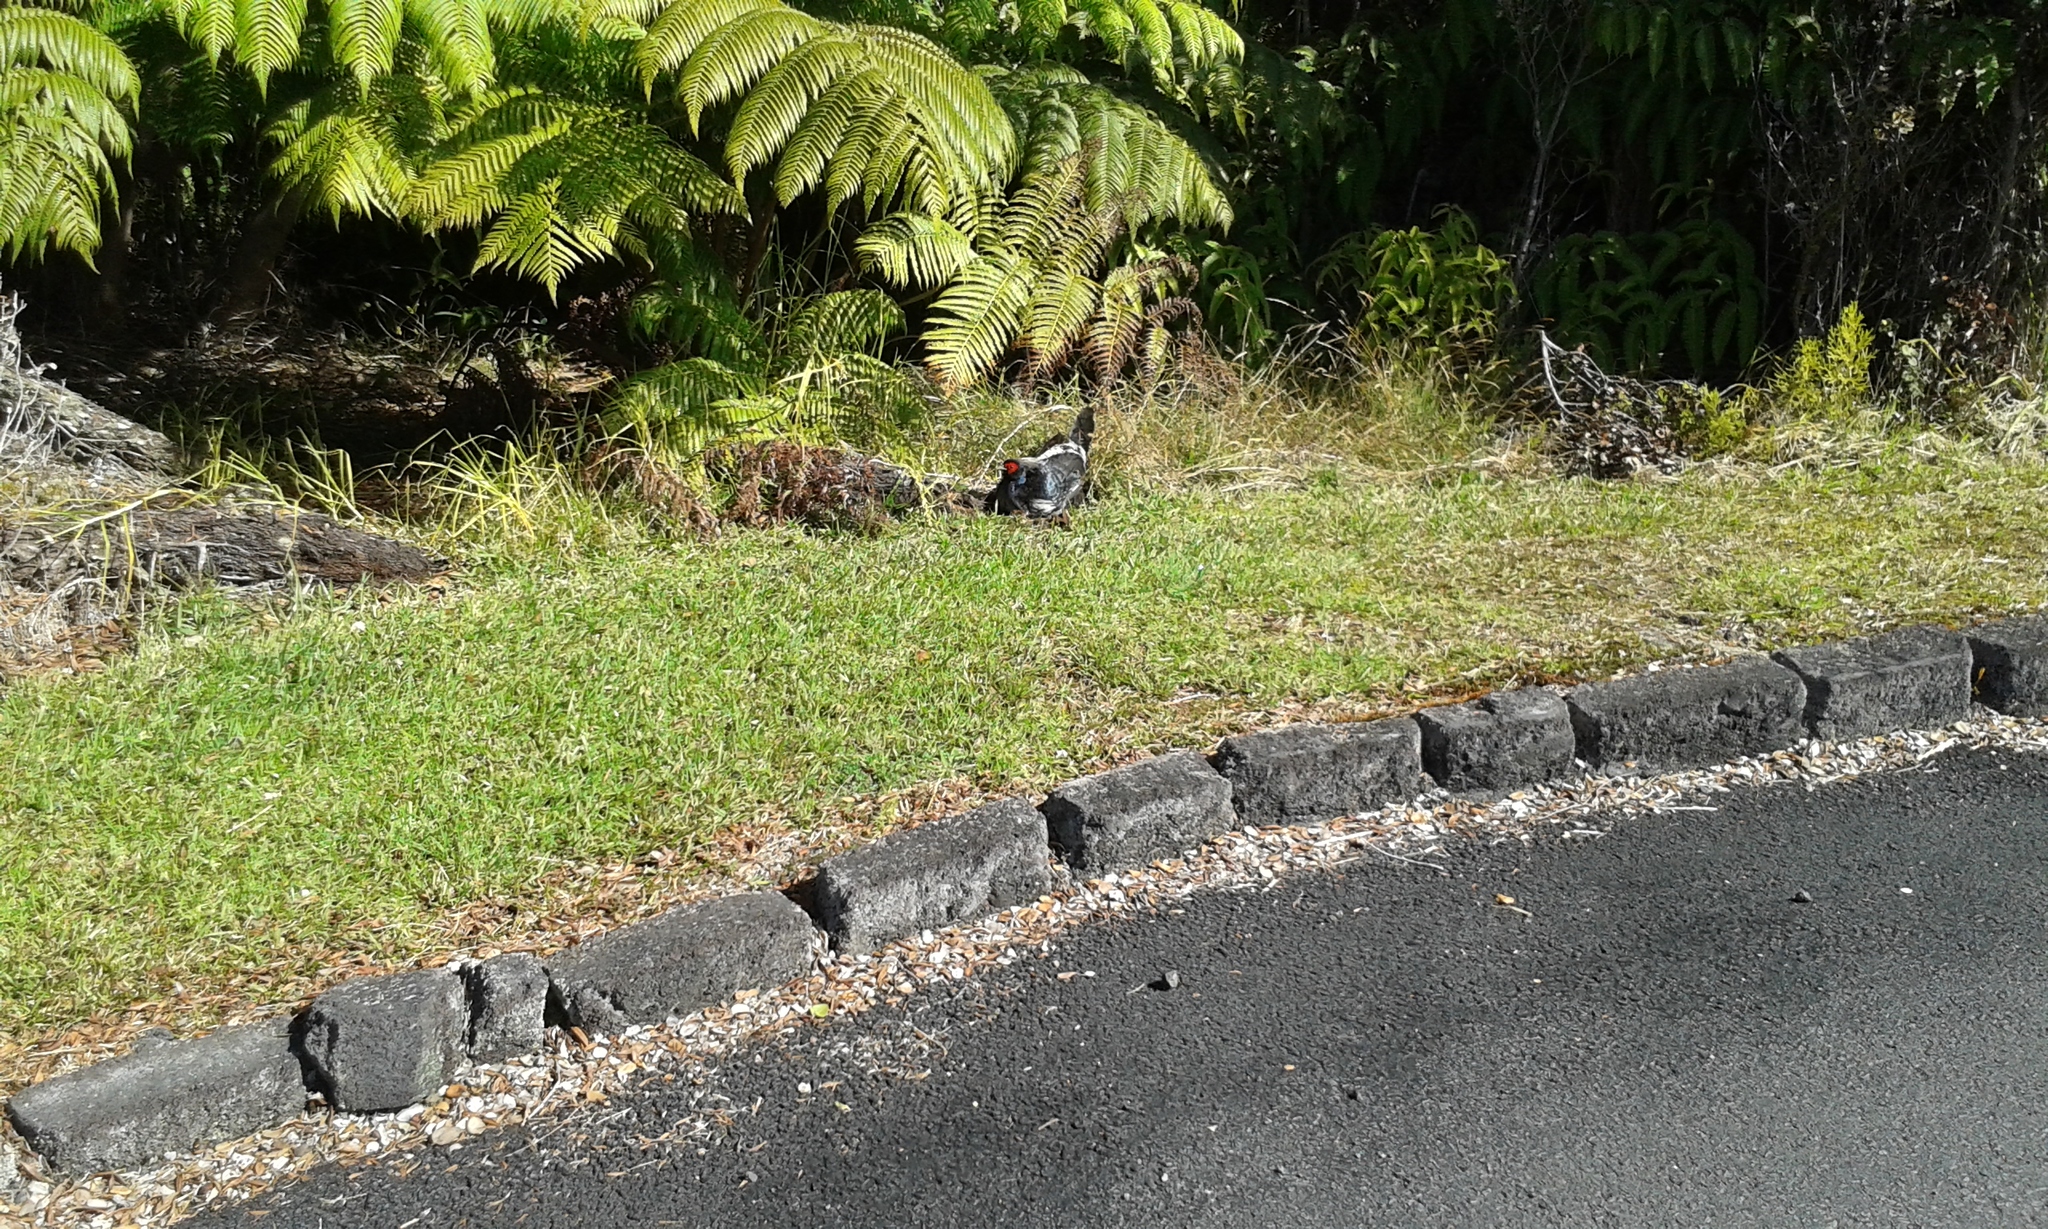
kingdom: Animalia
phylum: Chordata
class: Aves
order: Galliformes
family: Phasianidae
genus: Lophura
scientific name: Lophura leucomelanos
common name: Kalij pheasant
